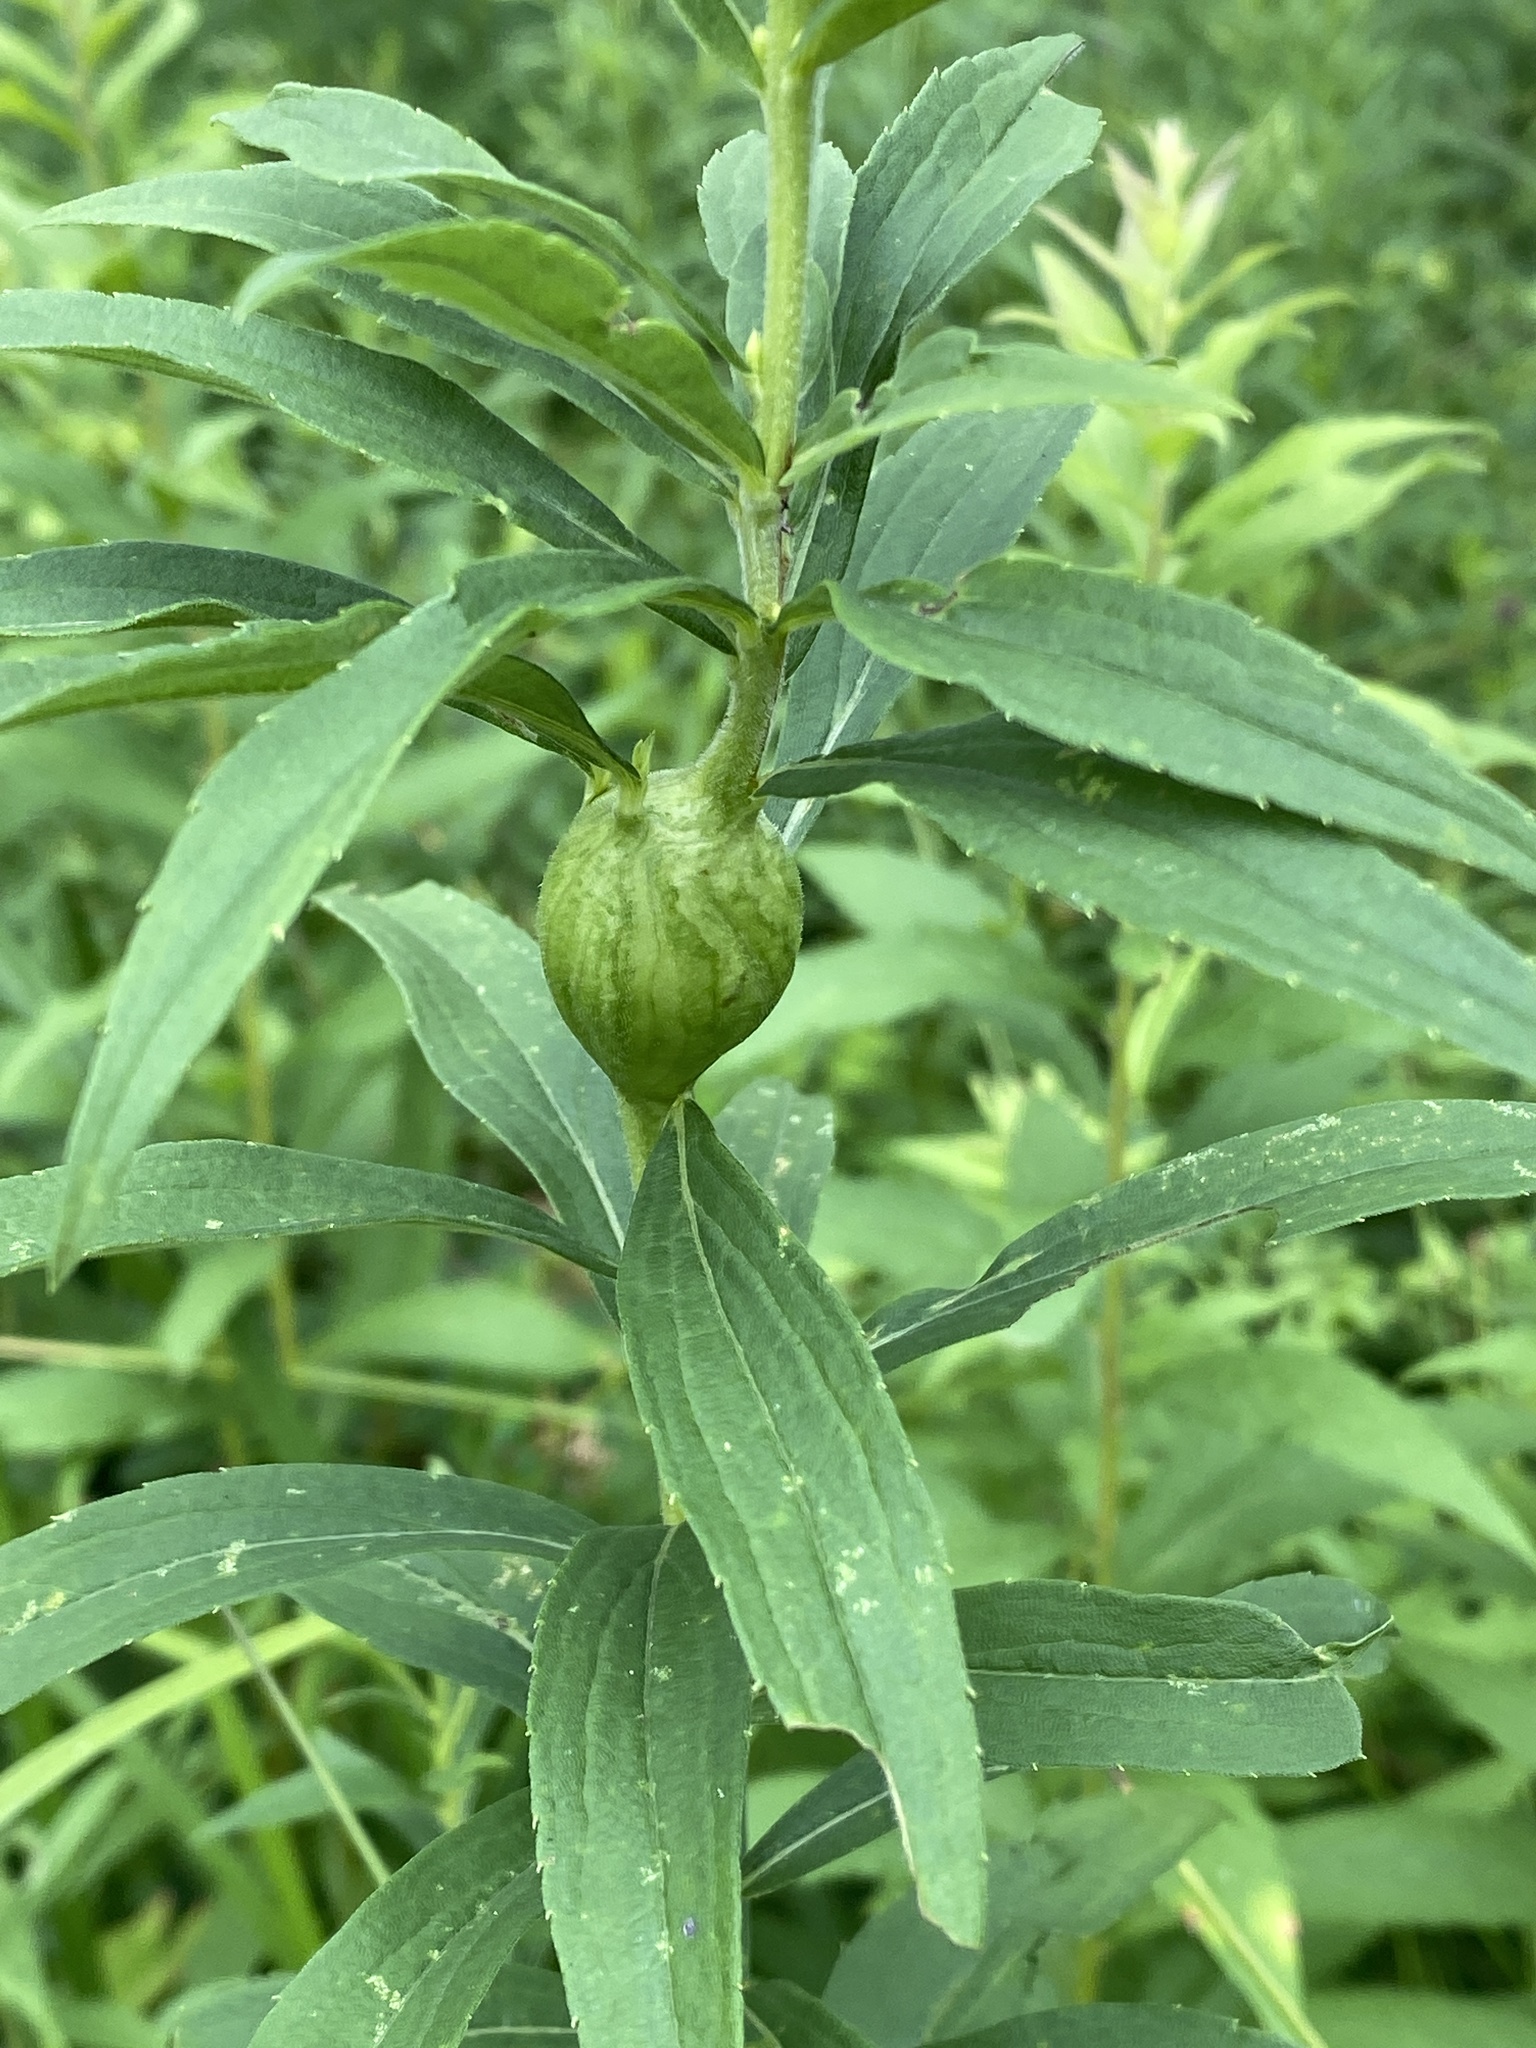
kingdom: Animalia
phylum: Arthropoda
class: Insecta
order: Diptera
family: Tephritidae
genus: Eurosta
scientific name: Eurosta solidaginis
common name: Goldenrod gall fly
